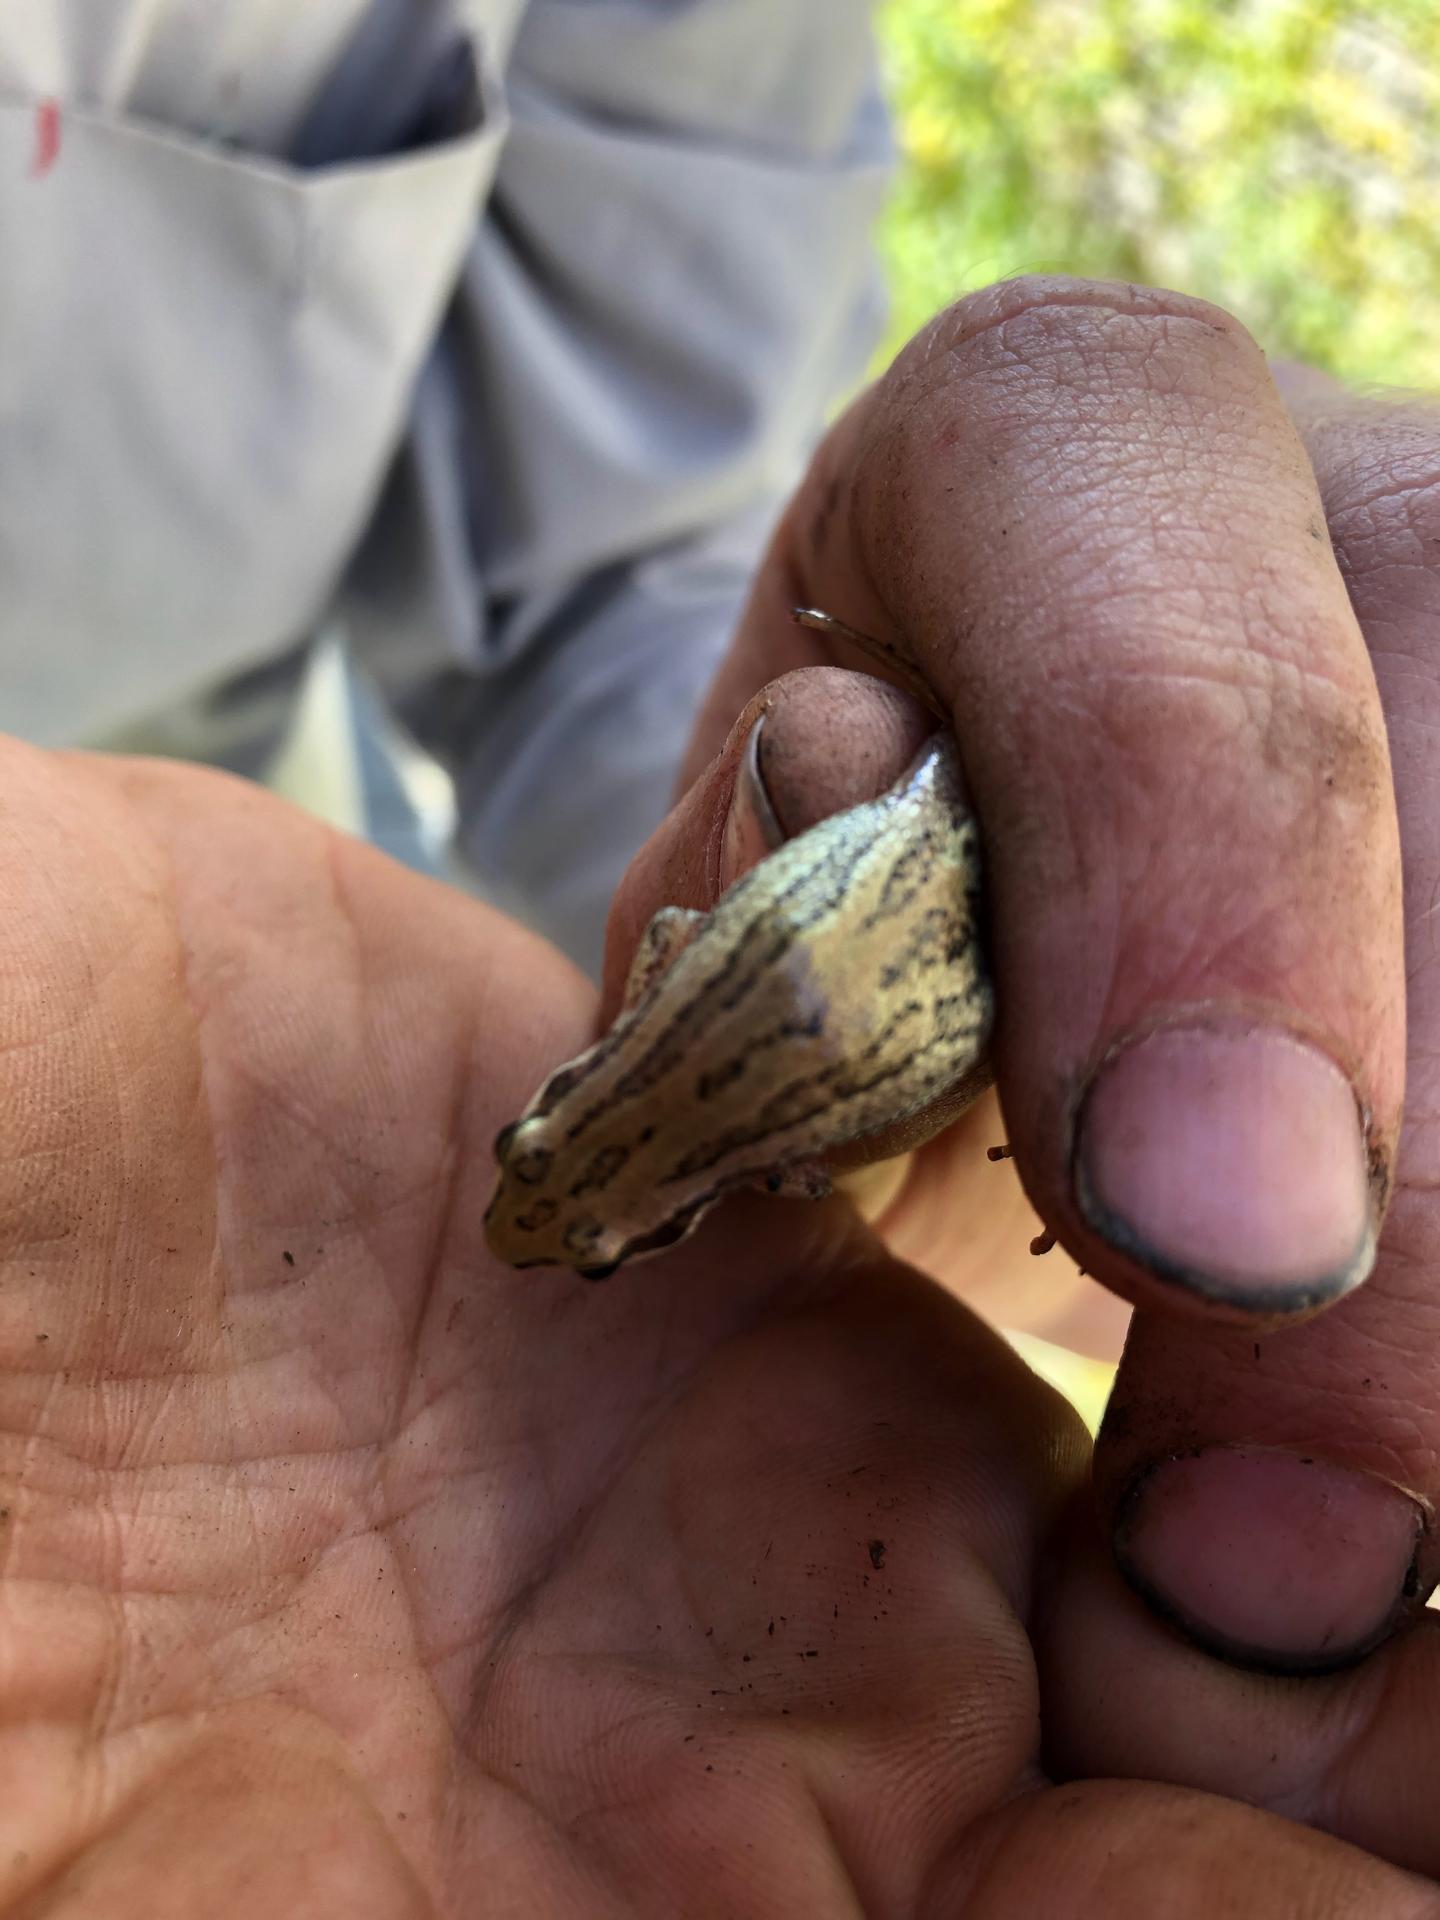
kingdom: Animalia
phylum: Chordata
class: Amphibia
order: Anura
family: Hylidae
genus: Pseudacris
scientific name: Pseudacris maculata
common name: Boreal chorus frog
